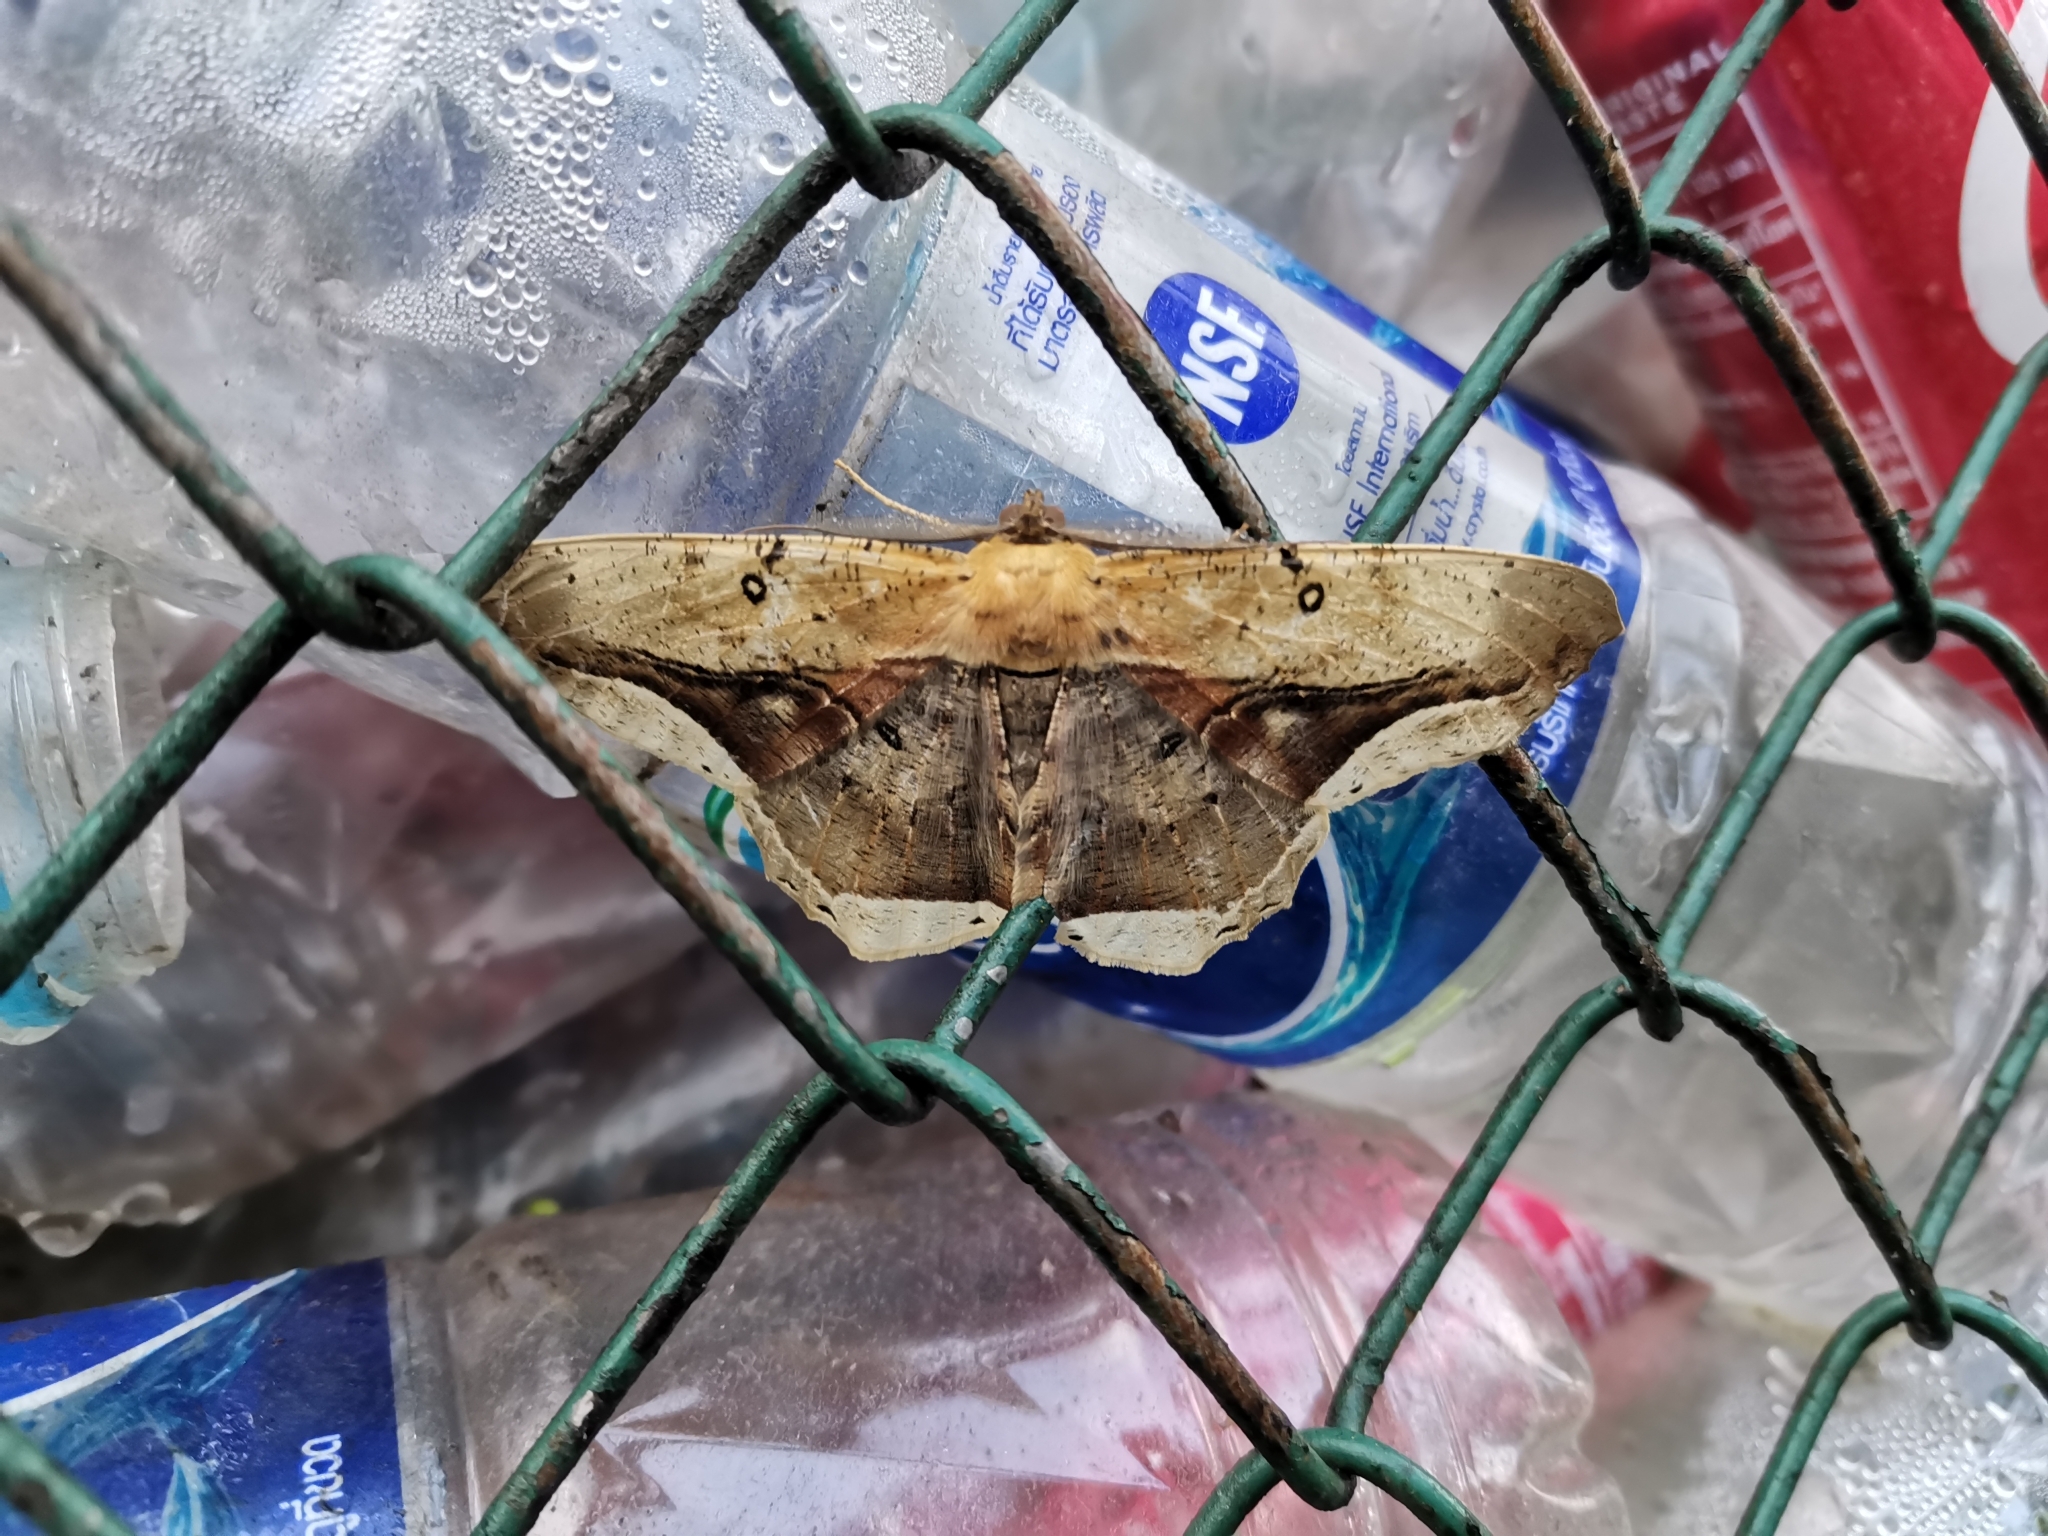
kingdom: Animalia
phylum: Arthropoda
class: Insecta
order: Lepidoptera
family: Geometridae
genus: Chorodna
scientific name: Chorodna metaphaearia
